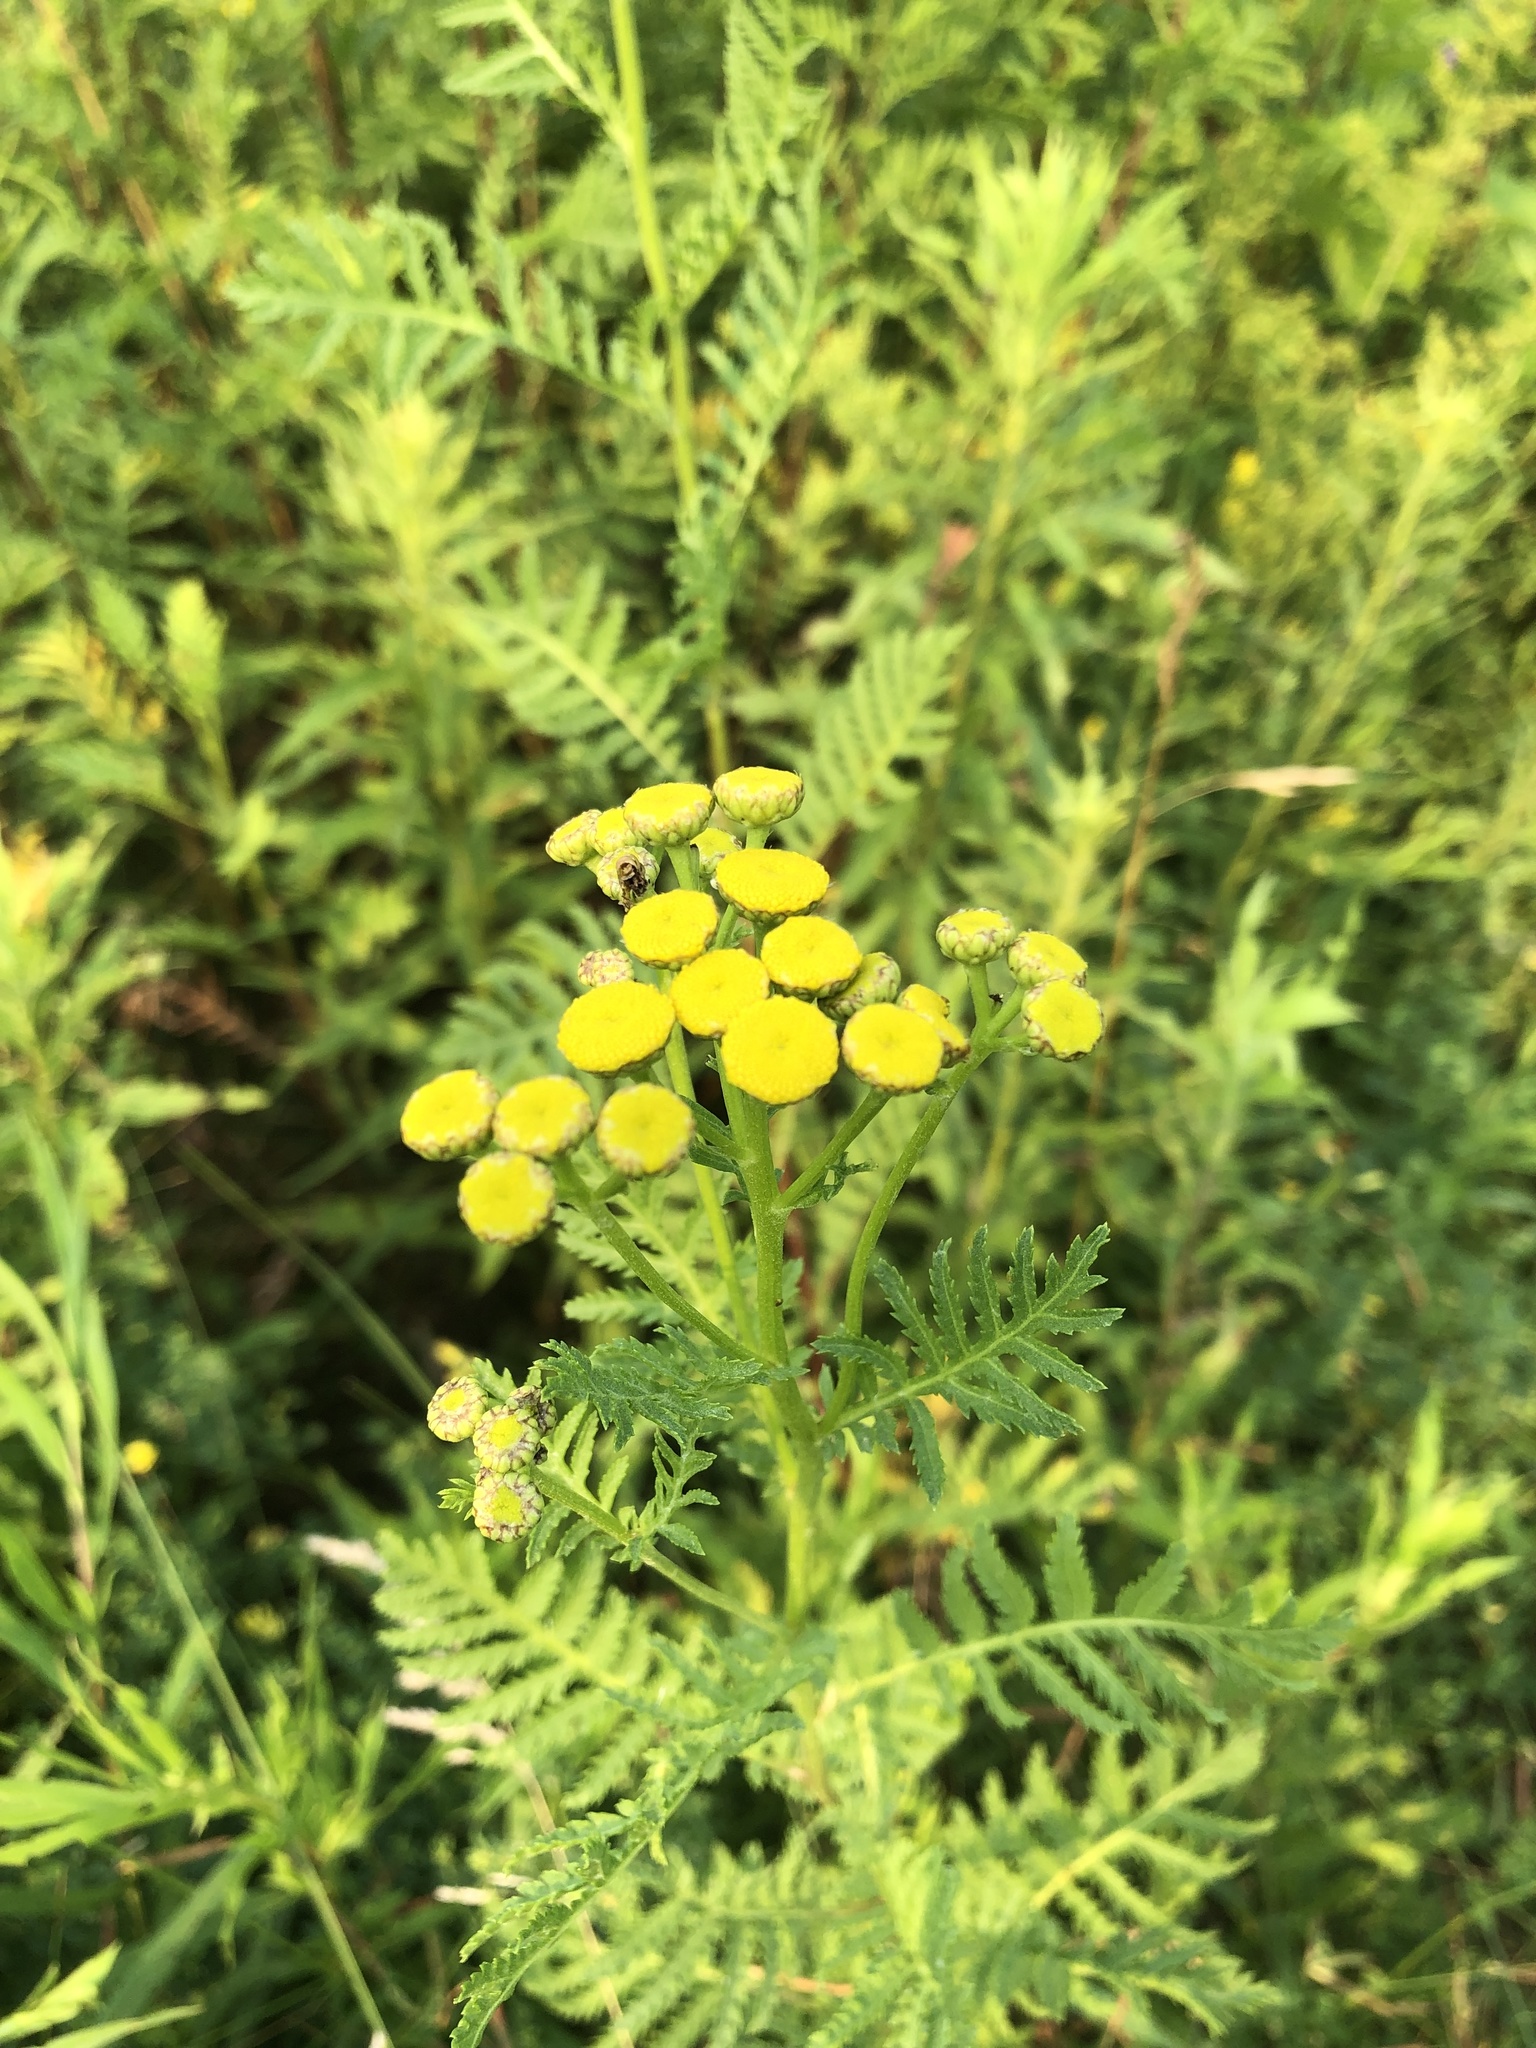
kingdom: Plantae
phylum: Tracheophyta
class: Magnoliopsida
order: Asterales
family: Asteraceae
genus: Tanacetum
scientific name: Tanacetum vulgare
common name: Common tansy
